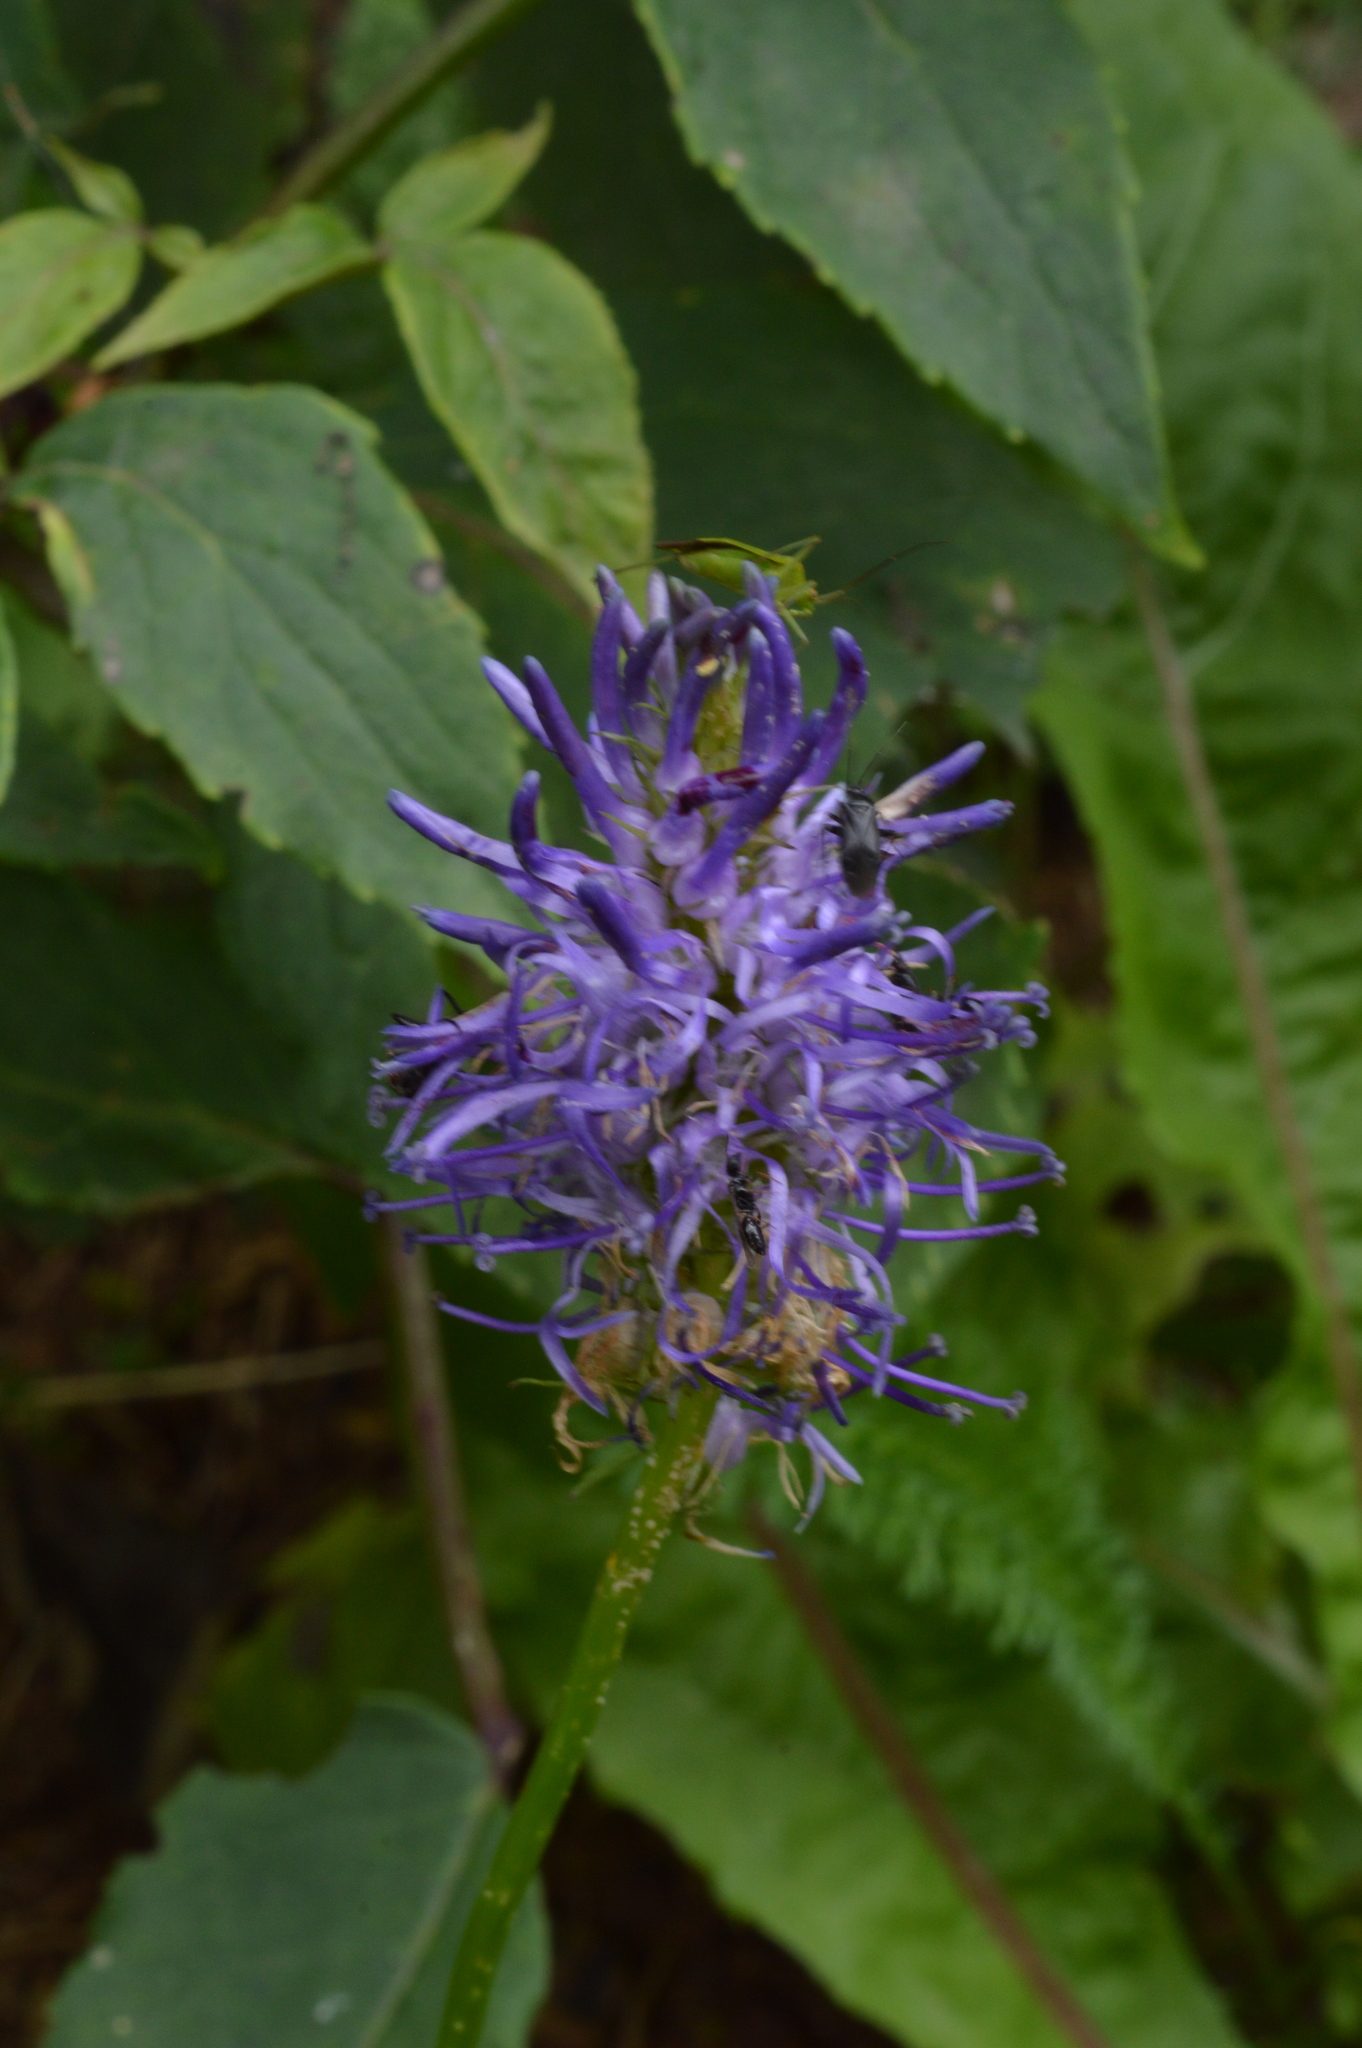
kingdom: Plantae
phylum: Tracheophyta
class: Magnoliopsida
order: Asterales
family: Campanulaceae
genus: Phyteuma
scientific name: Phyteuma betonicifolium
